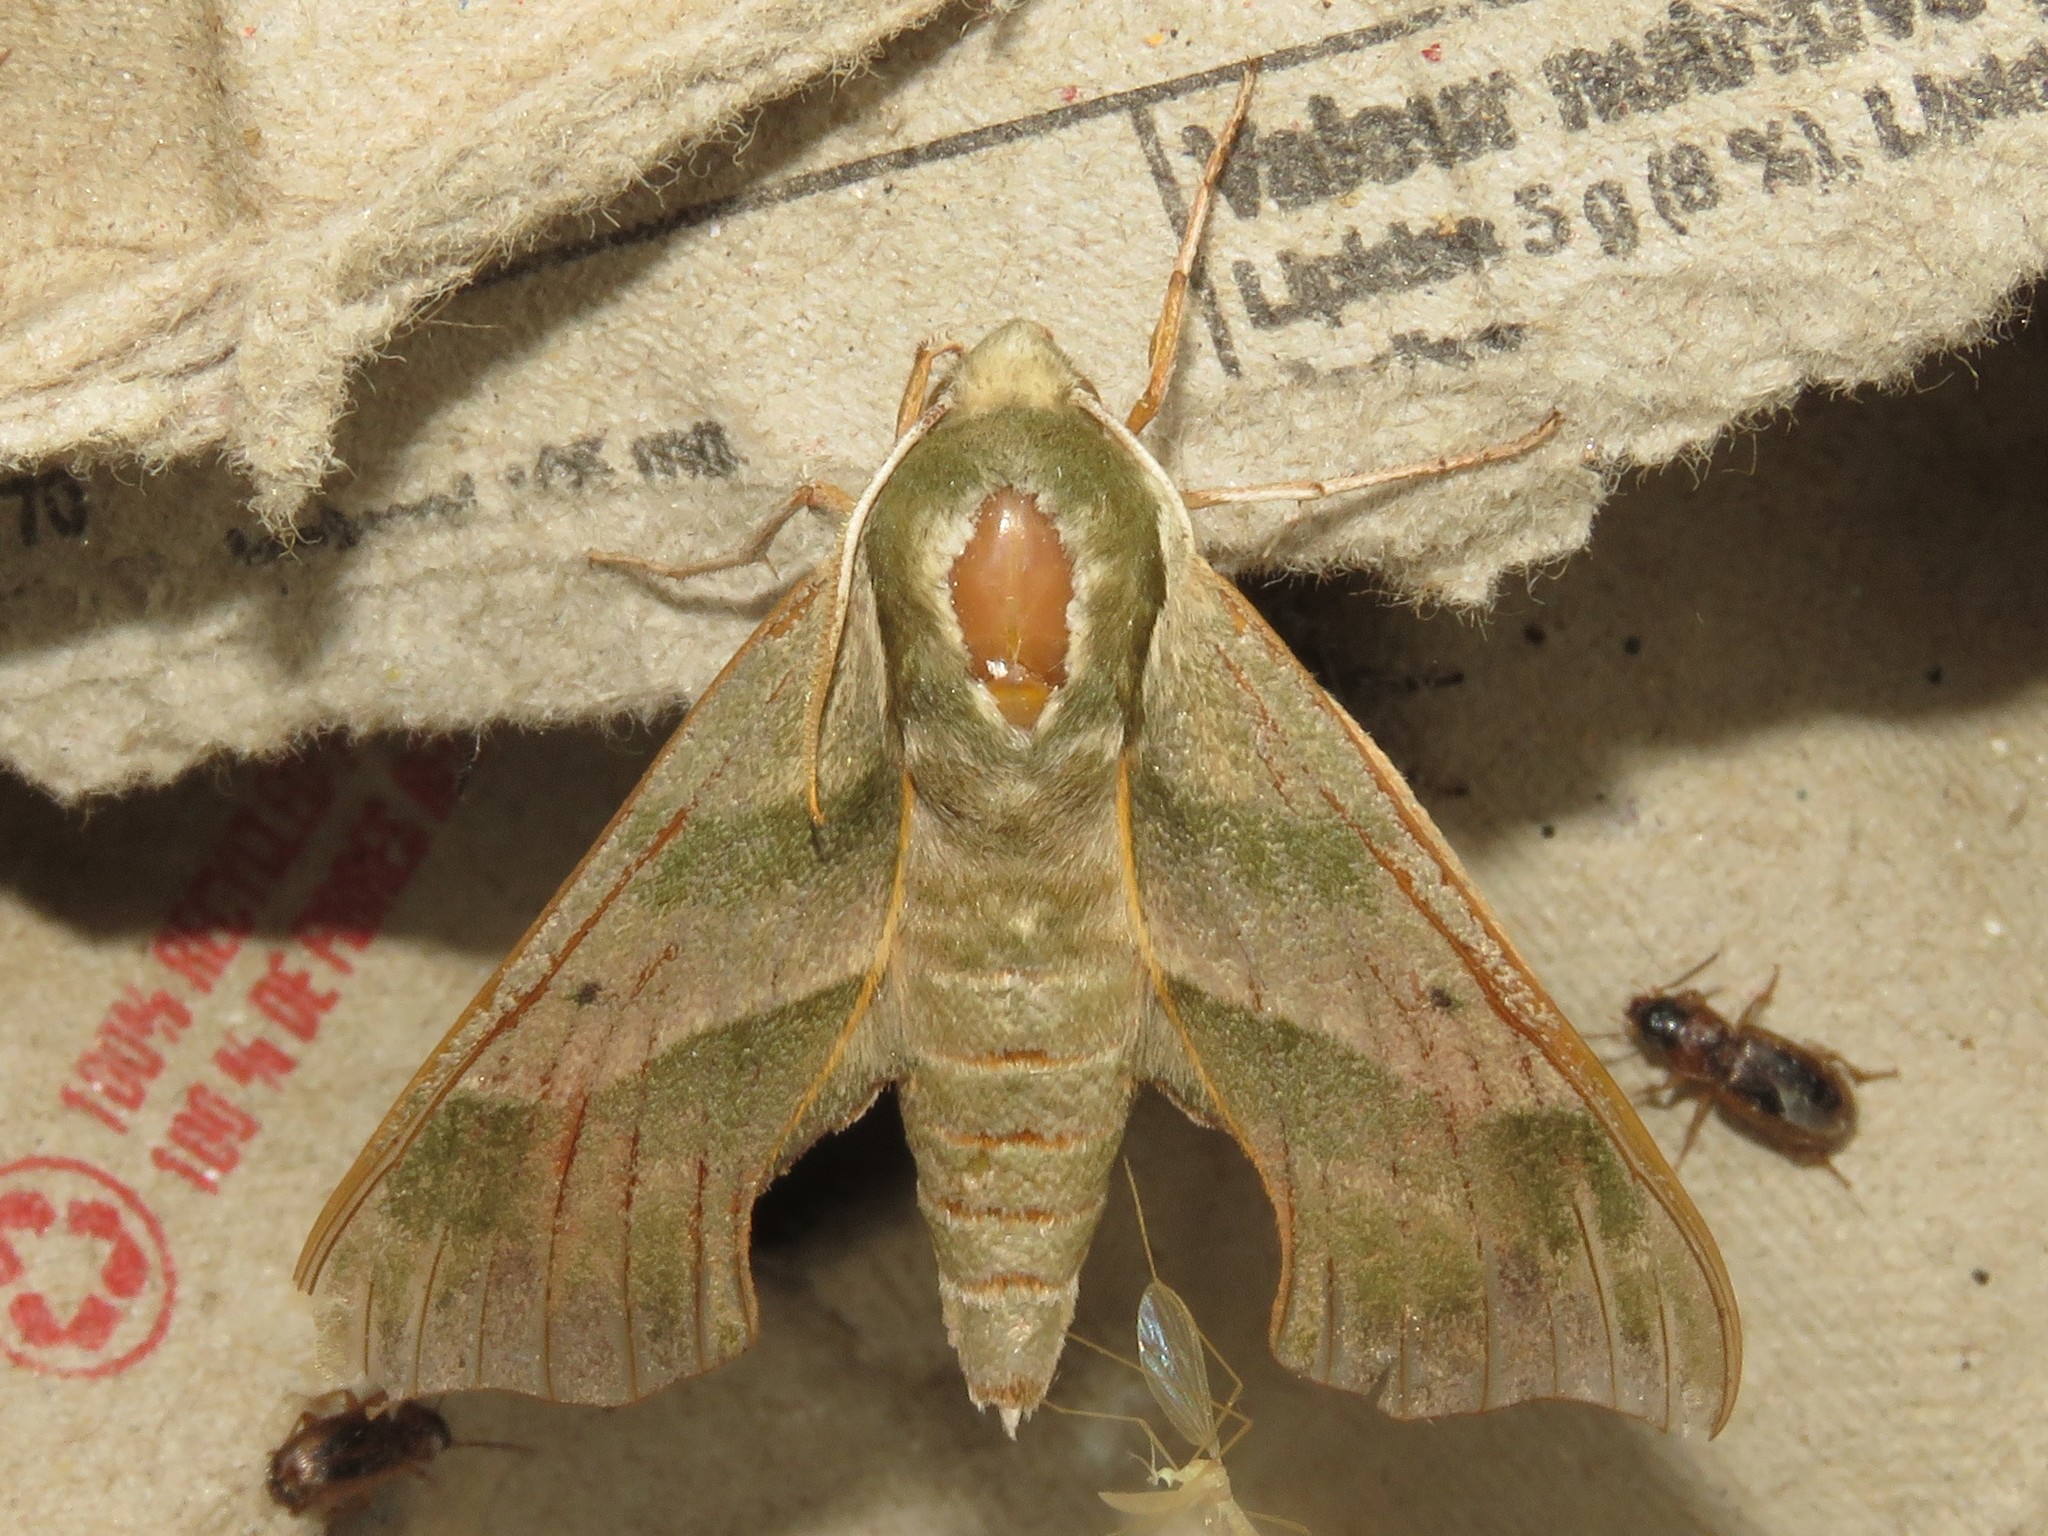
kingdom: Animalia
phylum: Arthropoda
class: Insecta
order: Lepidoptera
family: Sphingidae
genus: Darapsa
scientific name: Darapsa myron
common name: Hog sphinx
